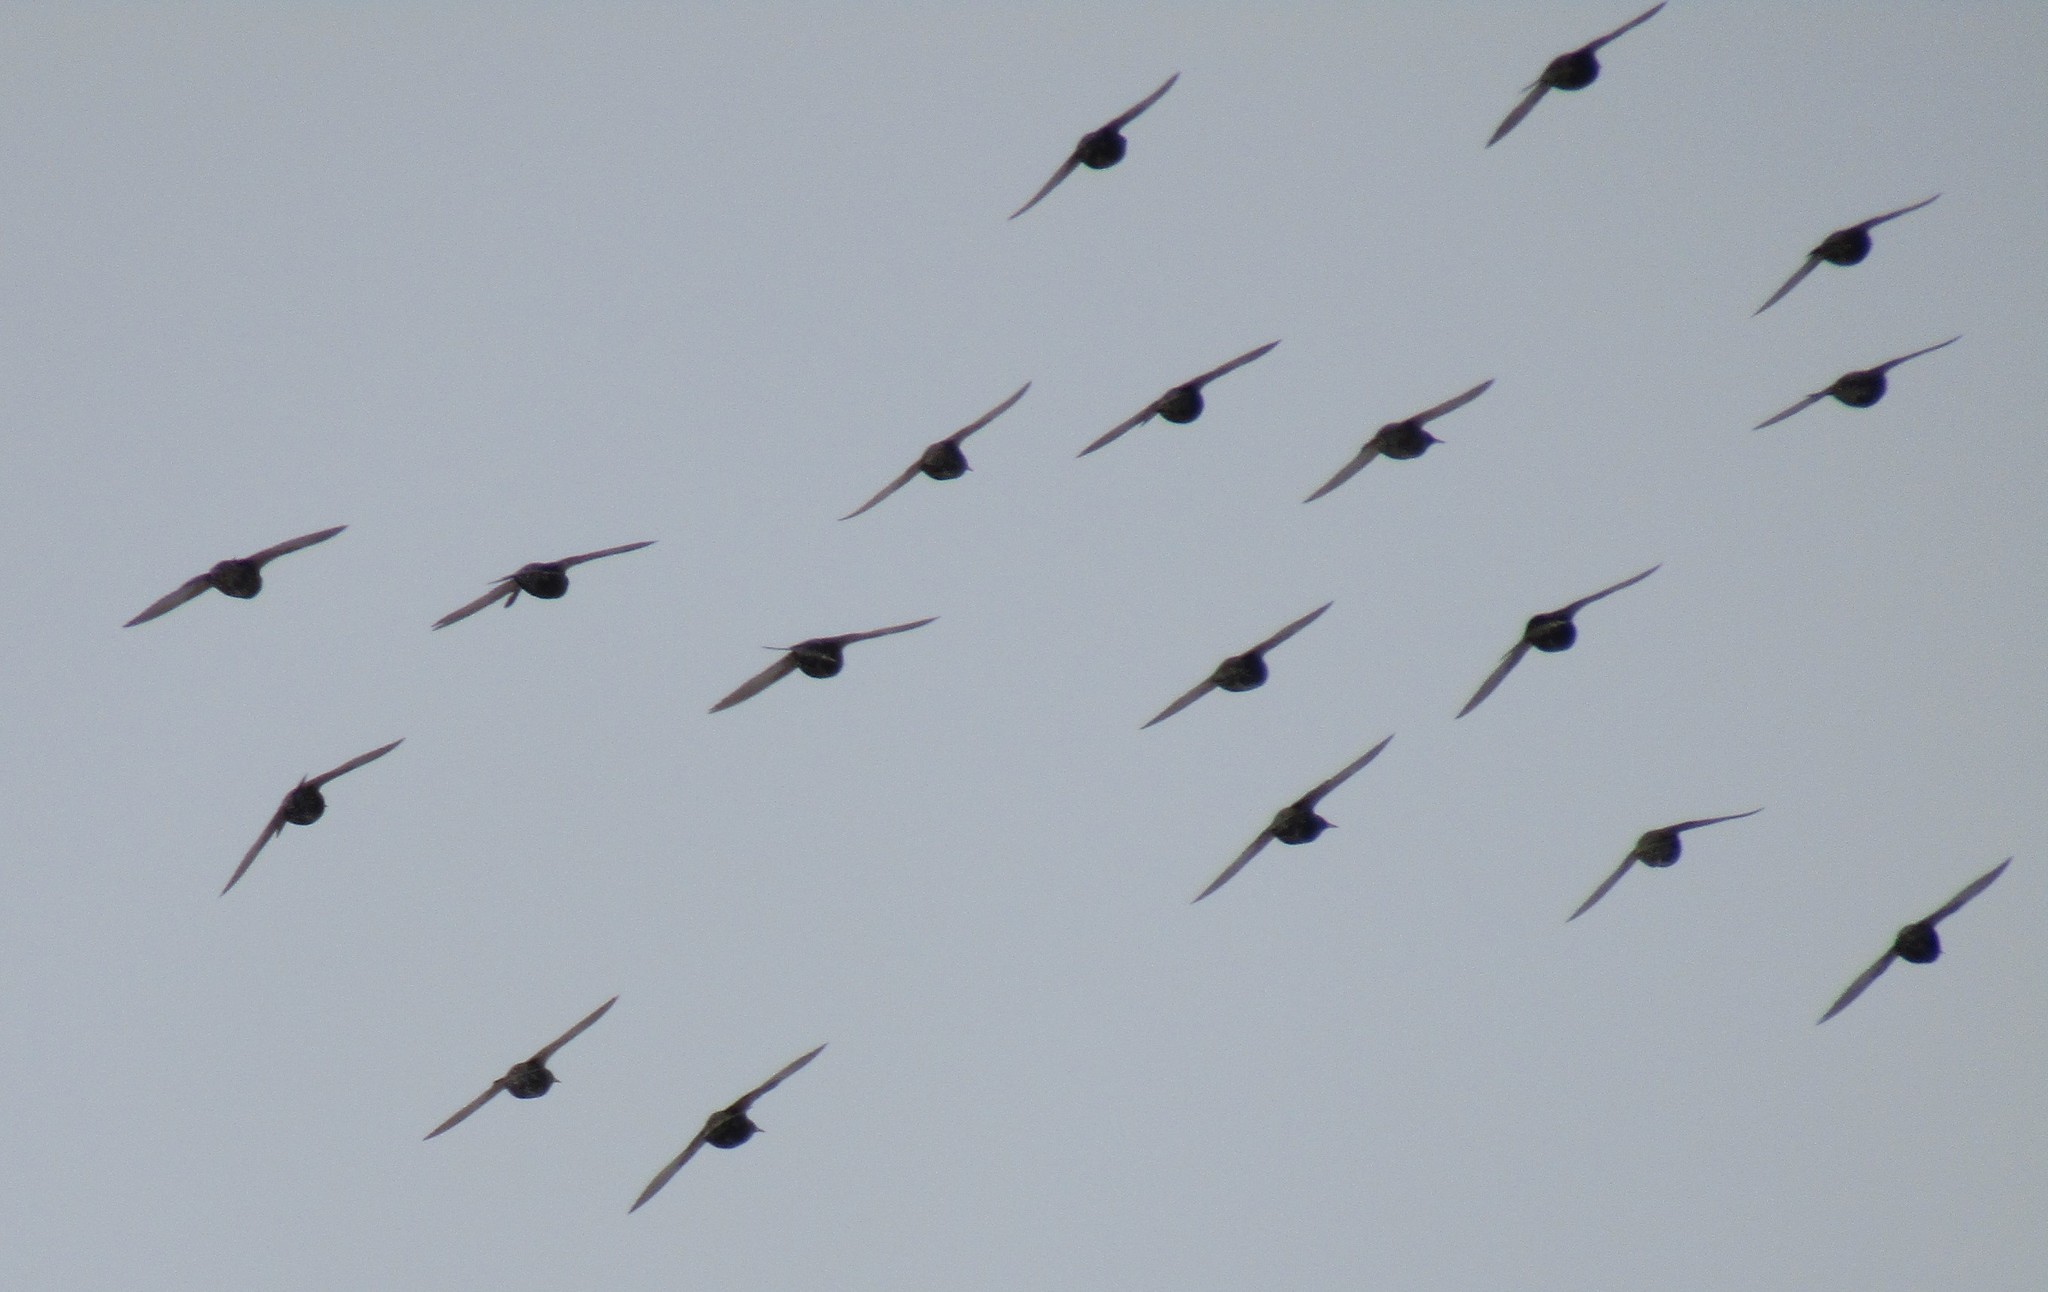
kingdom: Animalia
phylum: Chordata
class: Aves
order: Passeriformes
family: Sturnidae
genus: Sturnus
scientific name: Sturnus vulgaris
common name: Common starling
